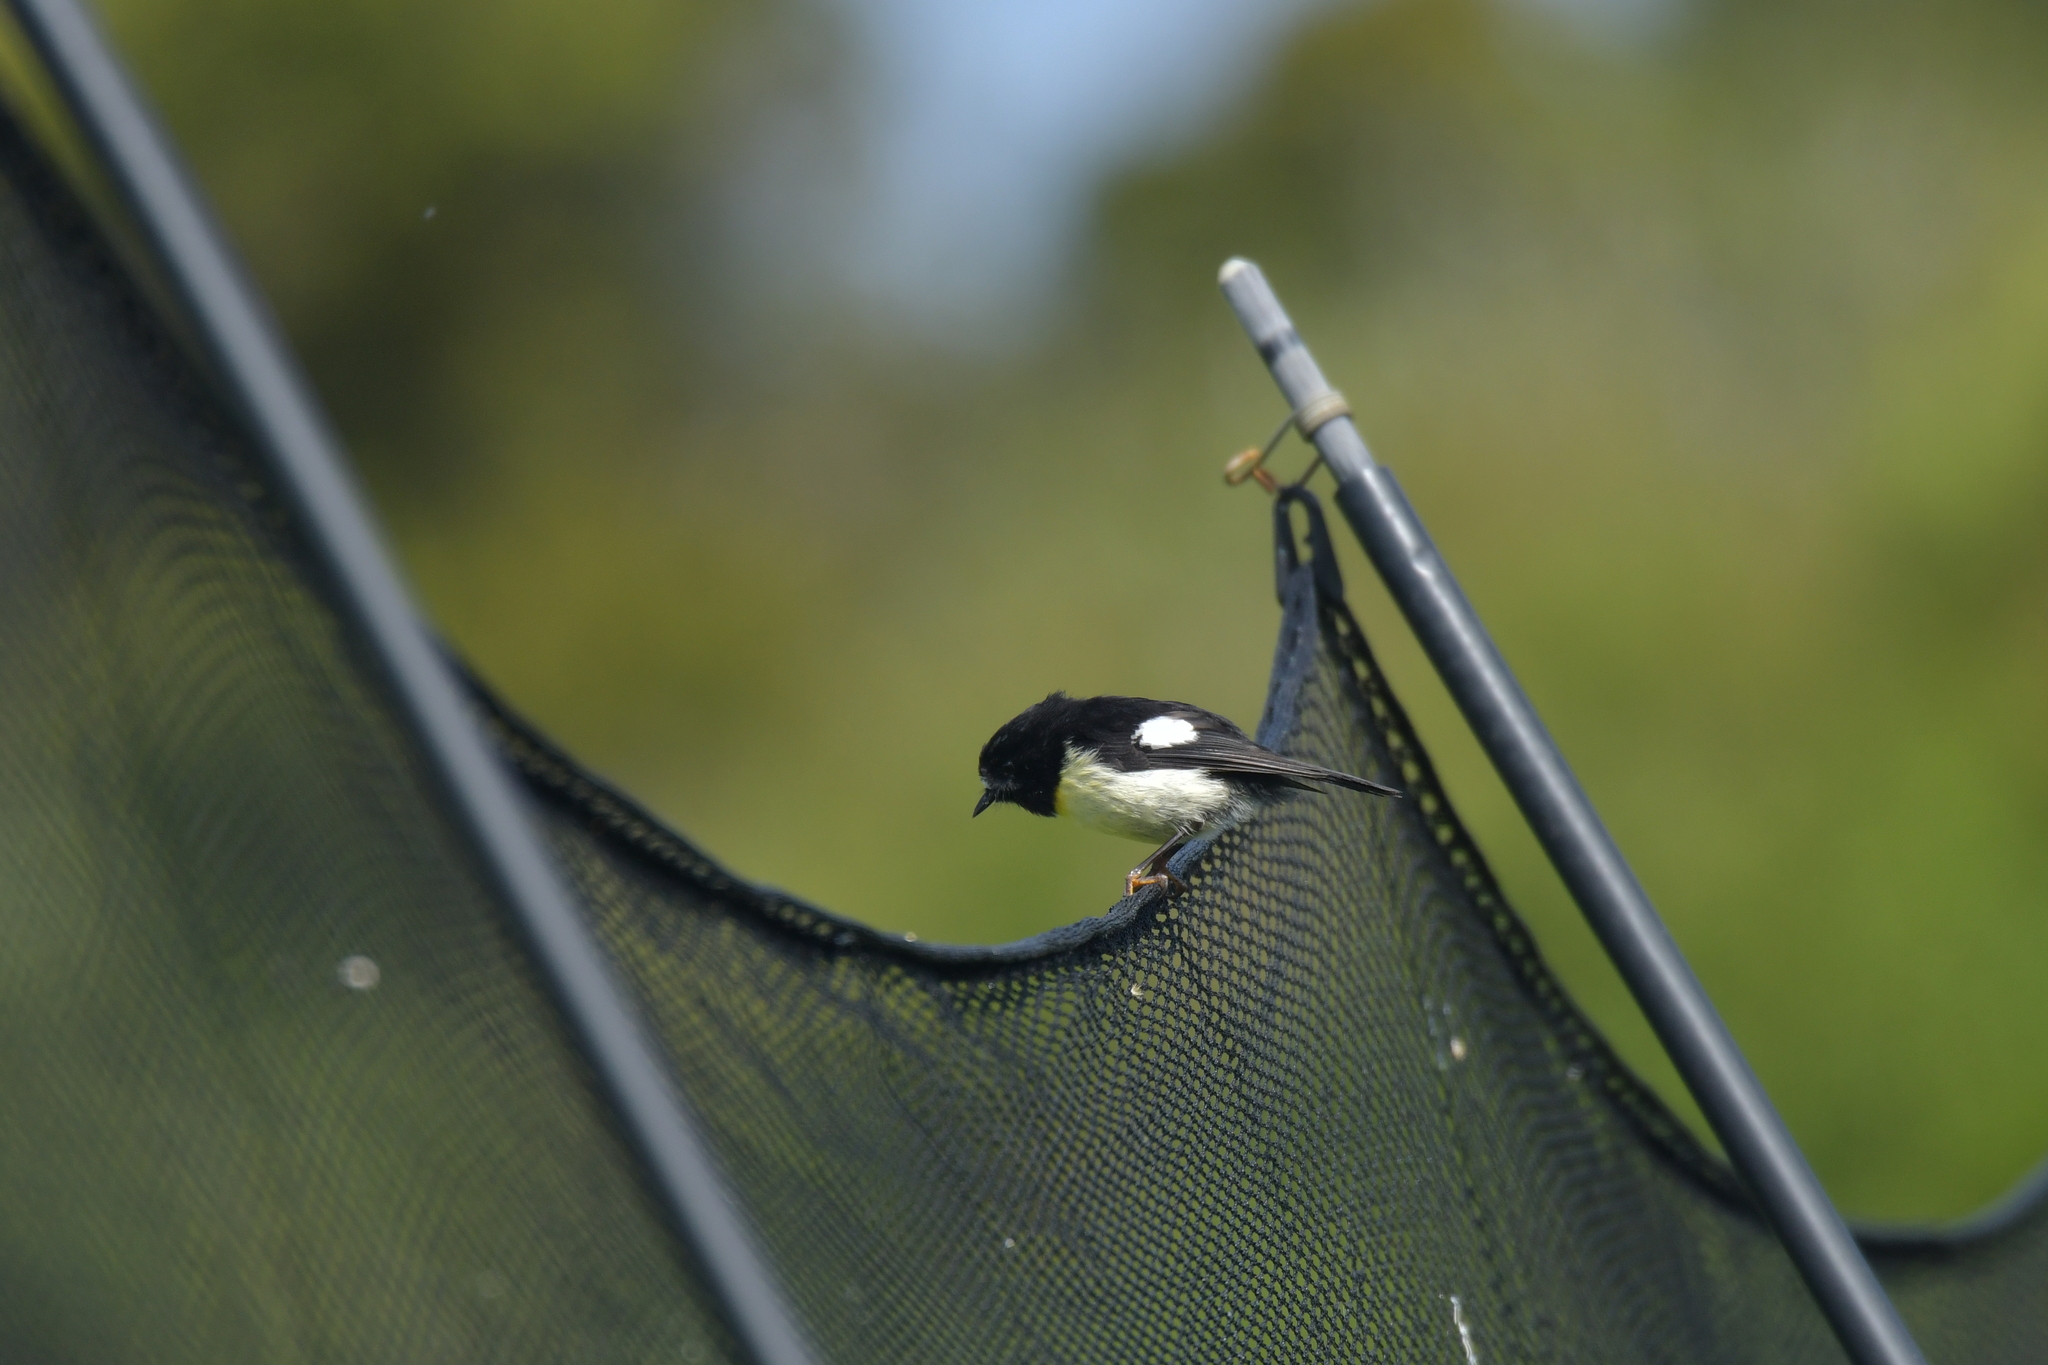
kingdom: Animalia
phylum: Chordata
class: Aves
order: Passeriformes
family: Petroicidae
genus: Petroica
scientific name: Petroica macrocephala
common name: Tomtit
